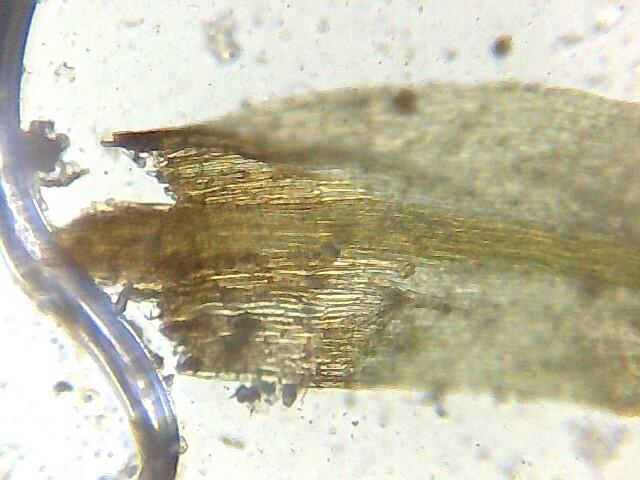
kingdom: Plantae
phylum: Bryophyta
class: Bryopsida
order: Pottiales
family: Pottiaceae
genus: Trichostomum
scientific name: Trichostomum brachydontium
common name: Variable crisp-moss
